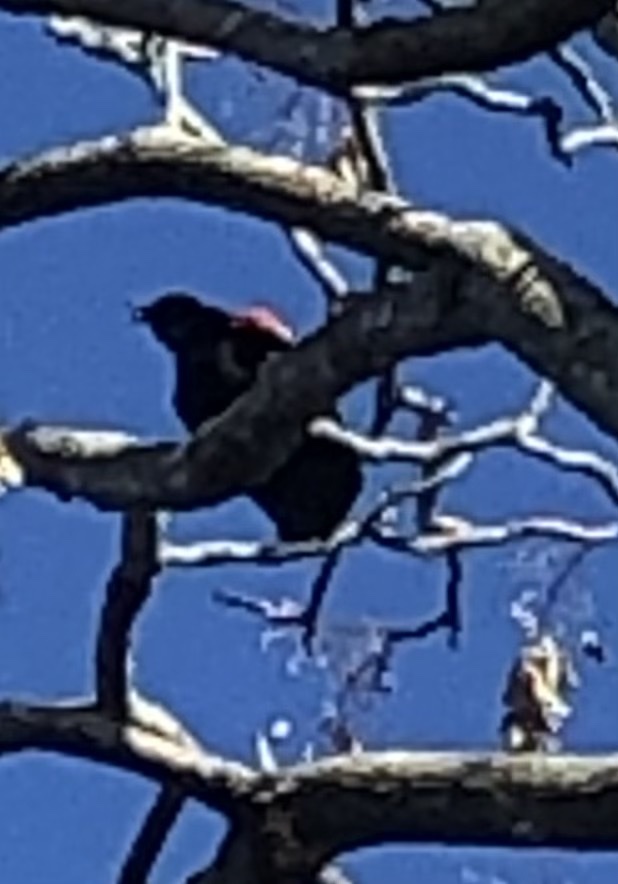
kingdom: Animalia
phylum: Chordata
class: Aves
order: Passeriformes
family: Icteridae
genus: Agelaius
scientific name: Agelaius phoeniceus
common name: Red-winged blackbird
